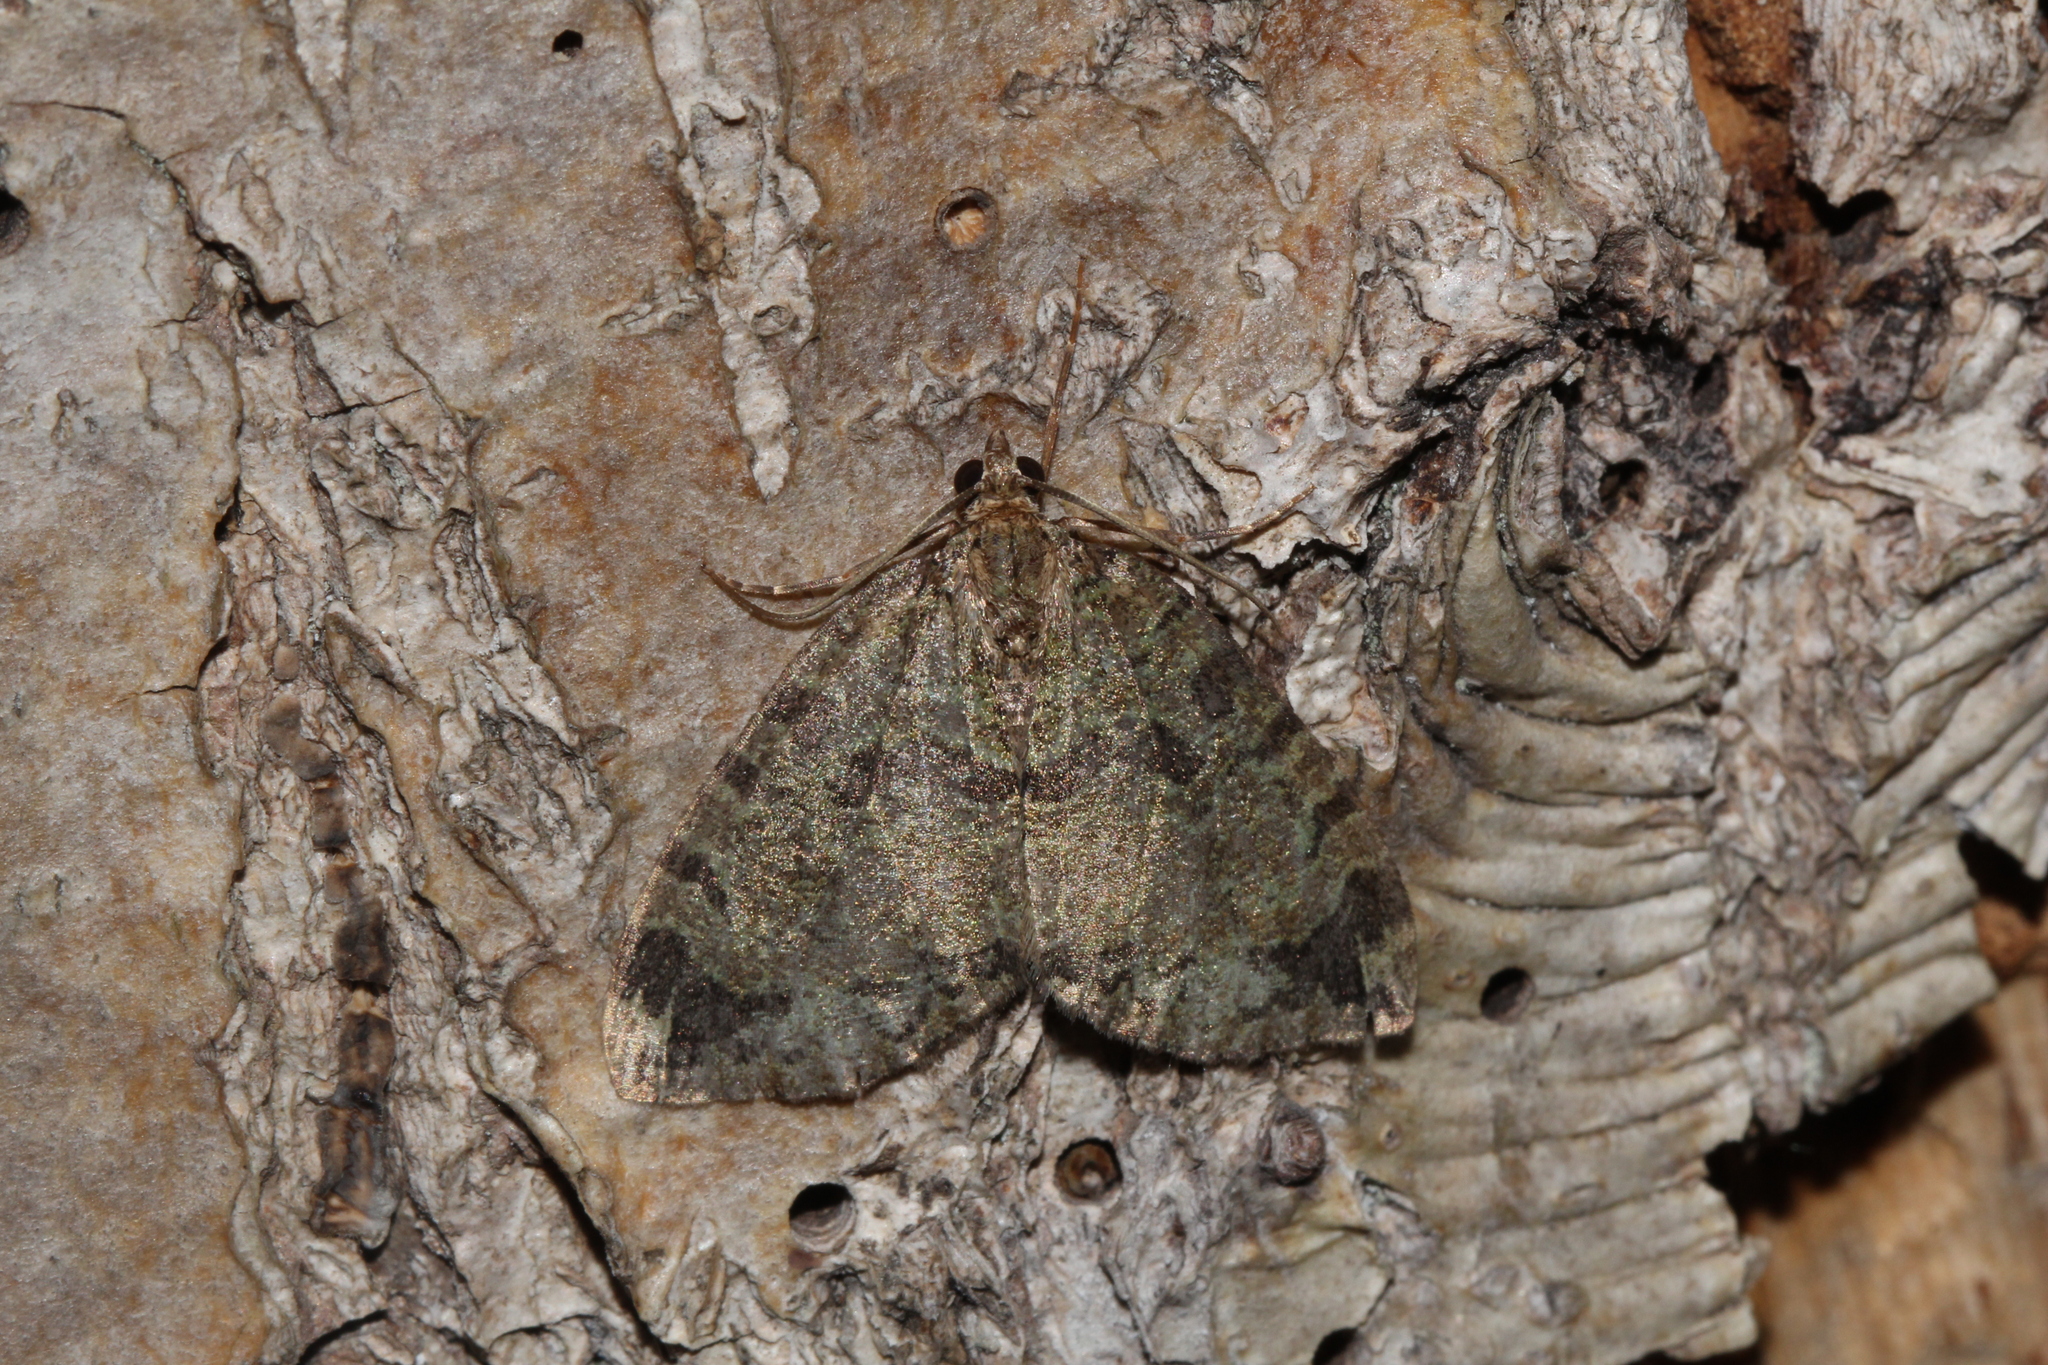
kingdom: Animalia
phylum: Arthropoda
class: Insecta
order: Lepidoptera
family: Geometridae
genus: Hydriomena
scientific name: Hydriomena furcata
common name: July highflyer
